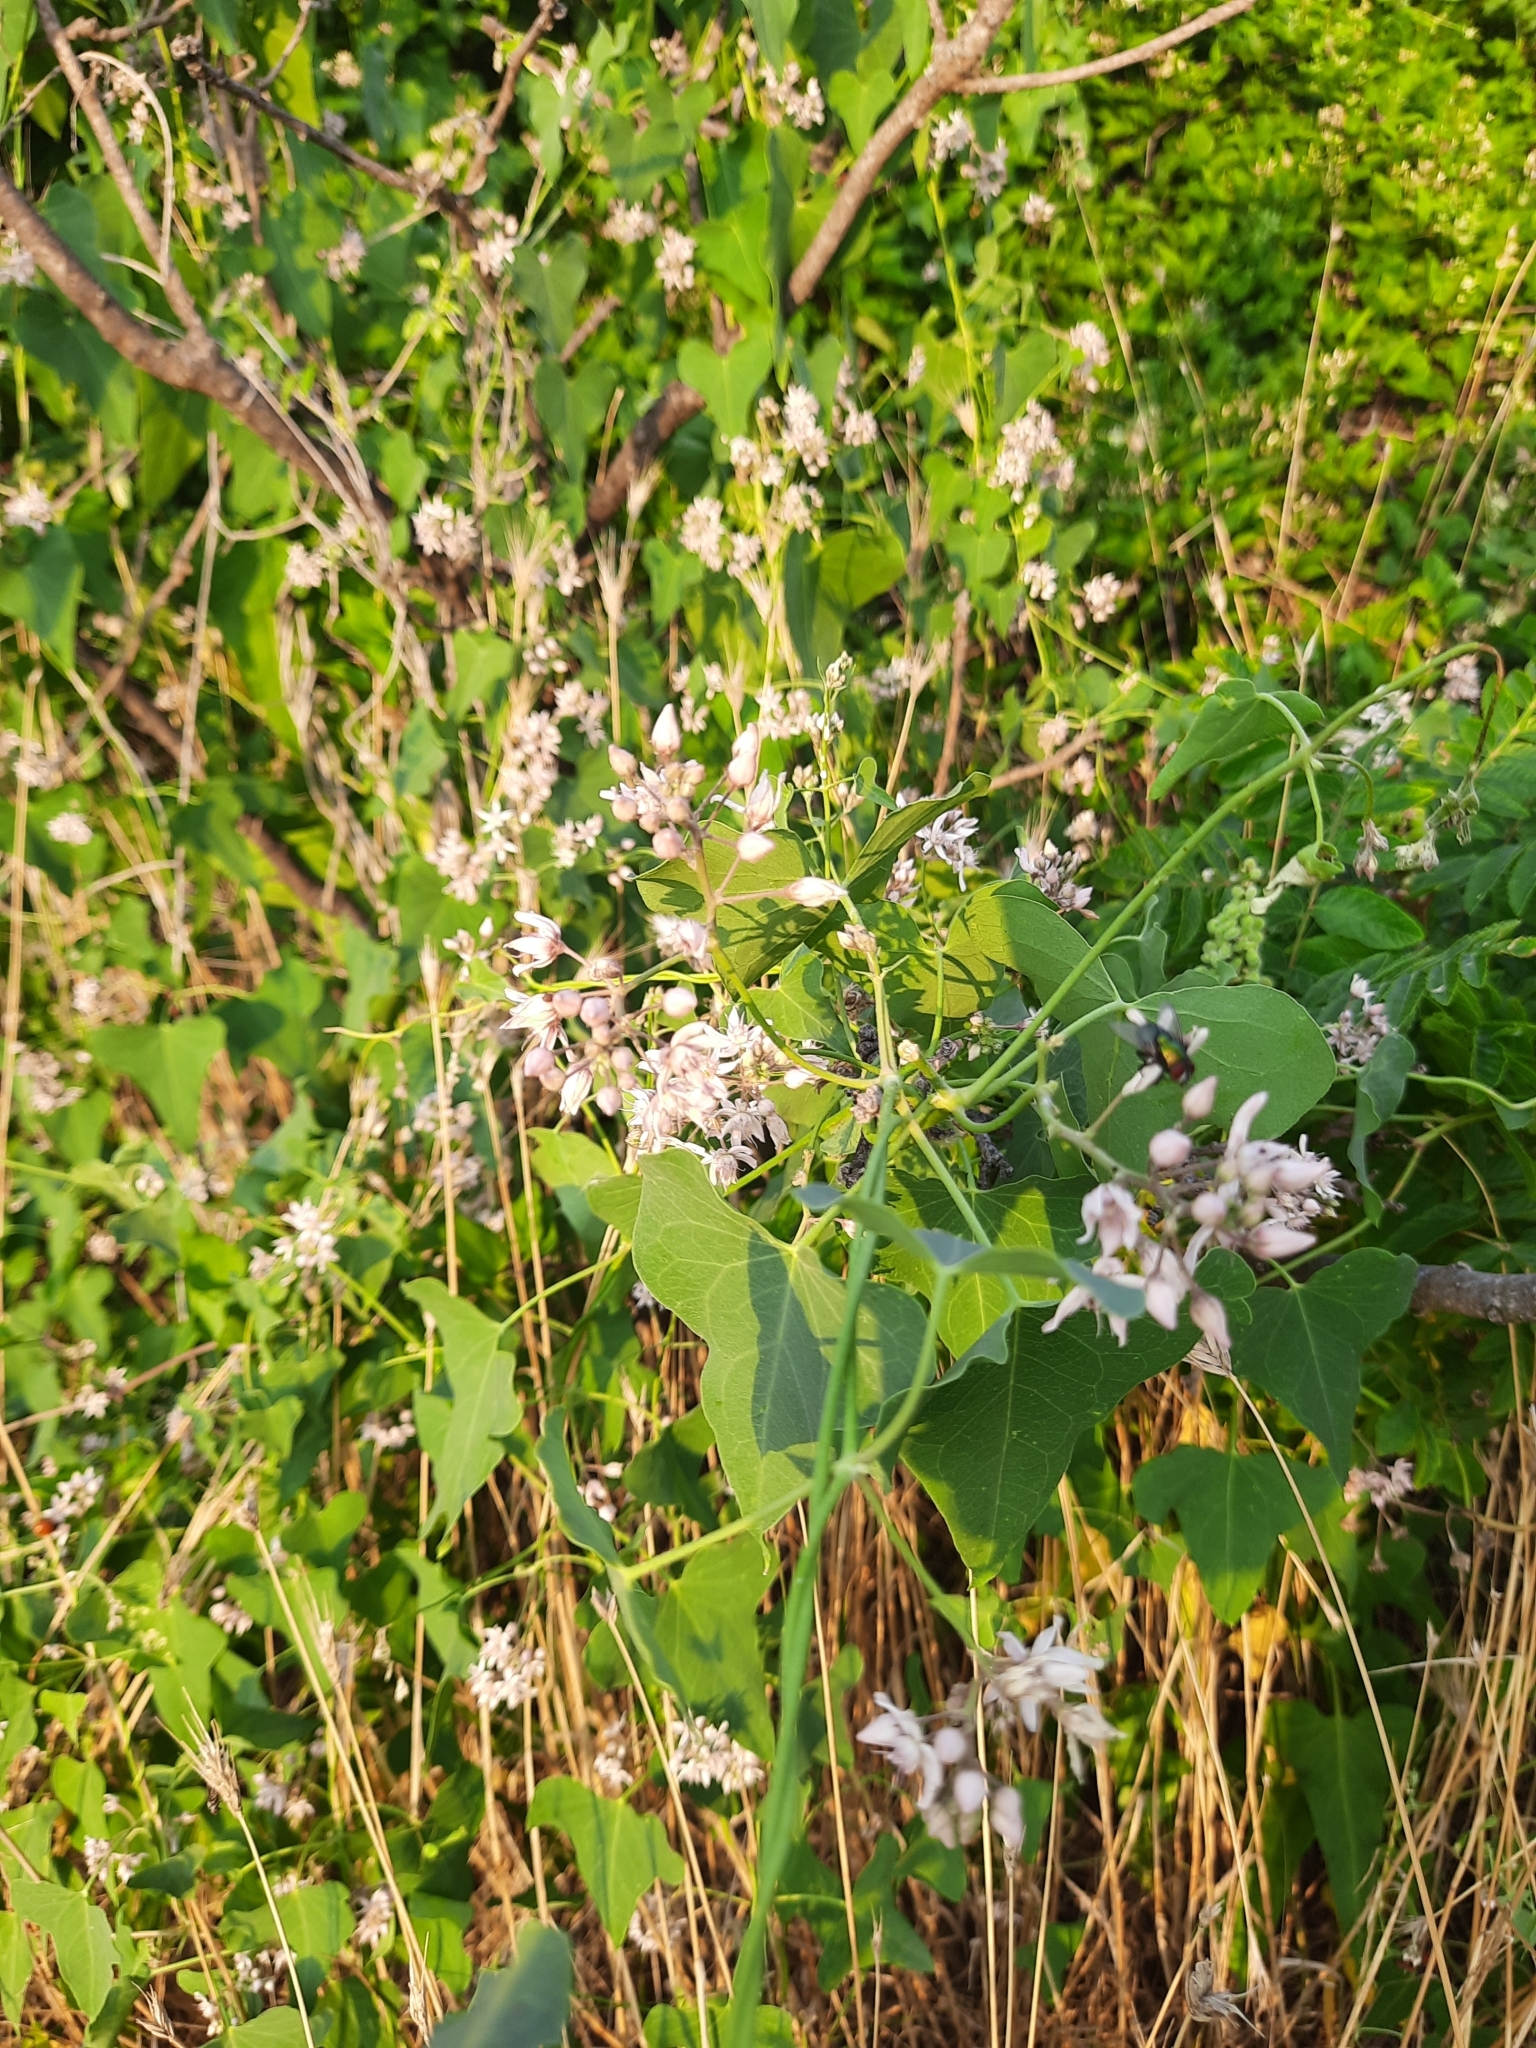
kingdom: Plantae
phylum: Tracheophyta
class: Magnoliopsida
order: Gentianales
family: Apocynaceae
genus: Cynanchum
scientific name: Cynanchum acutum
